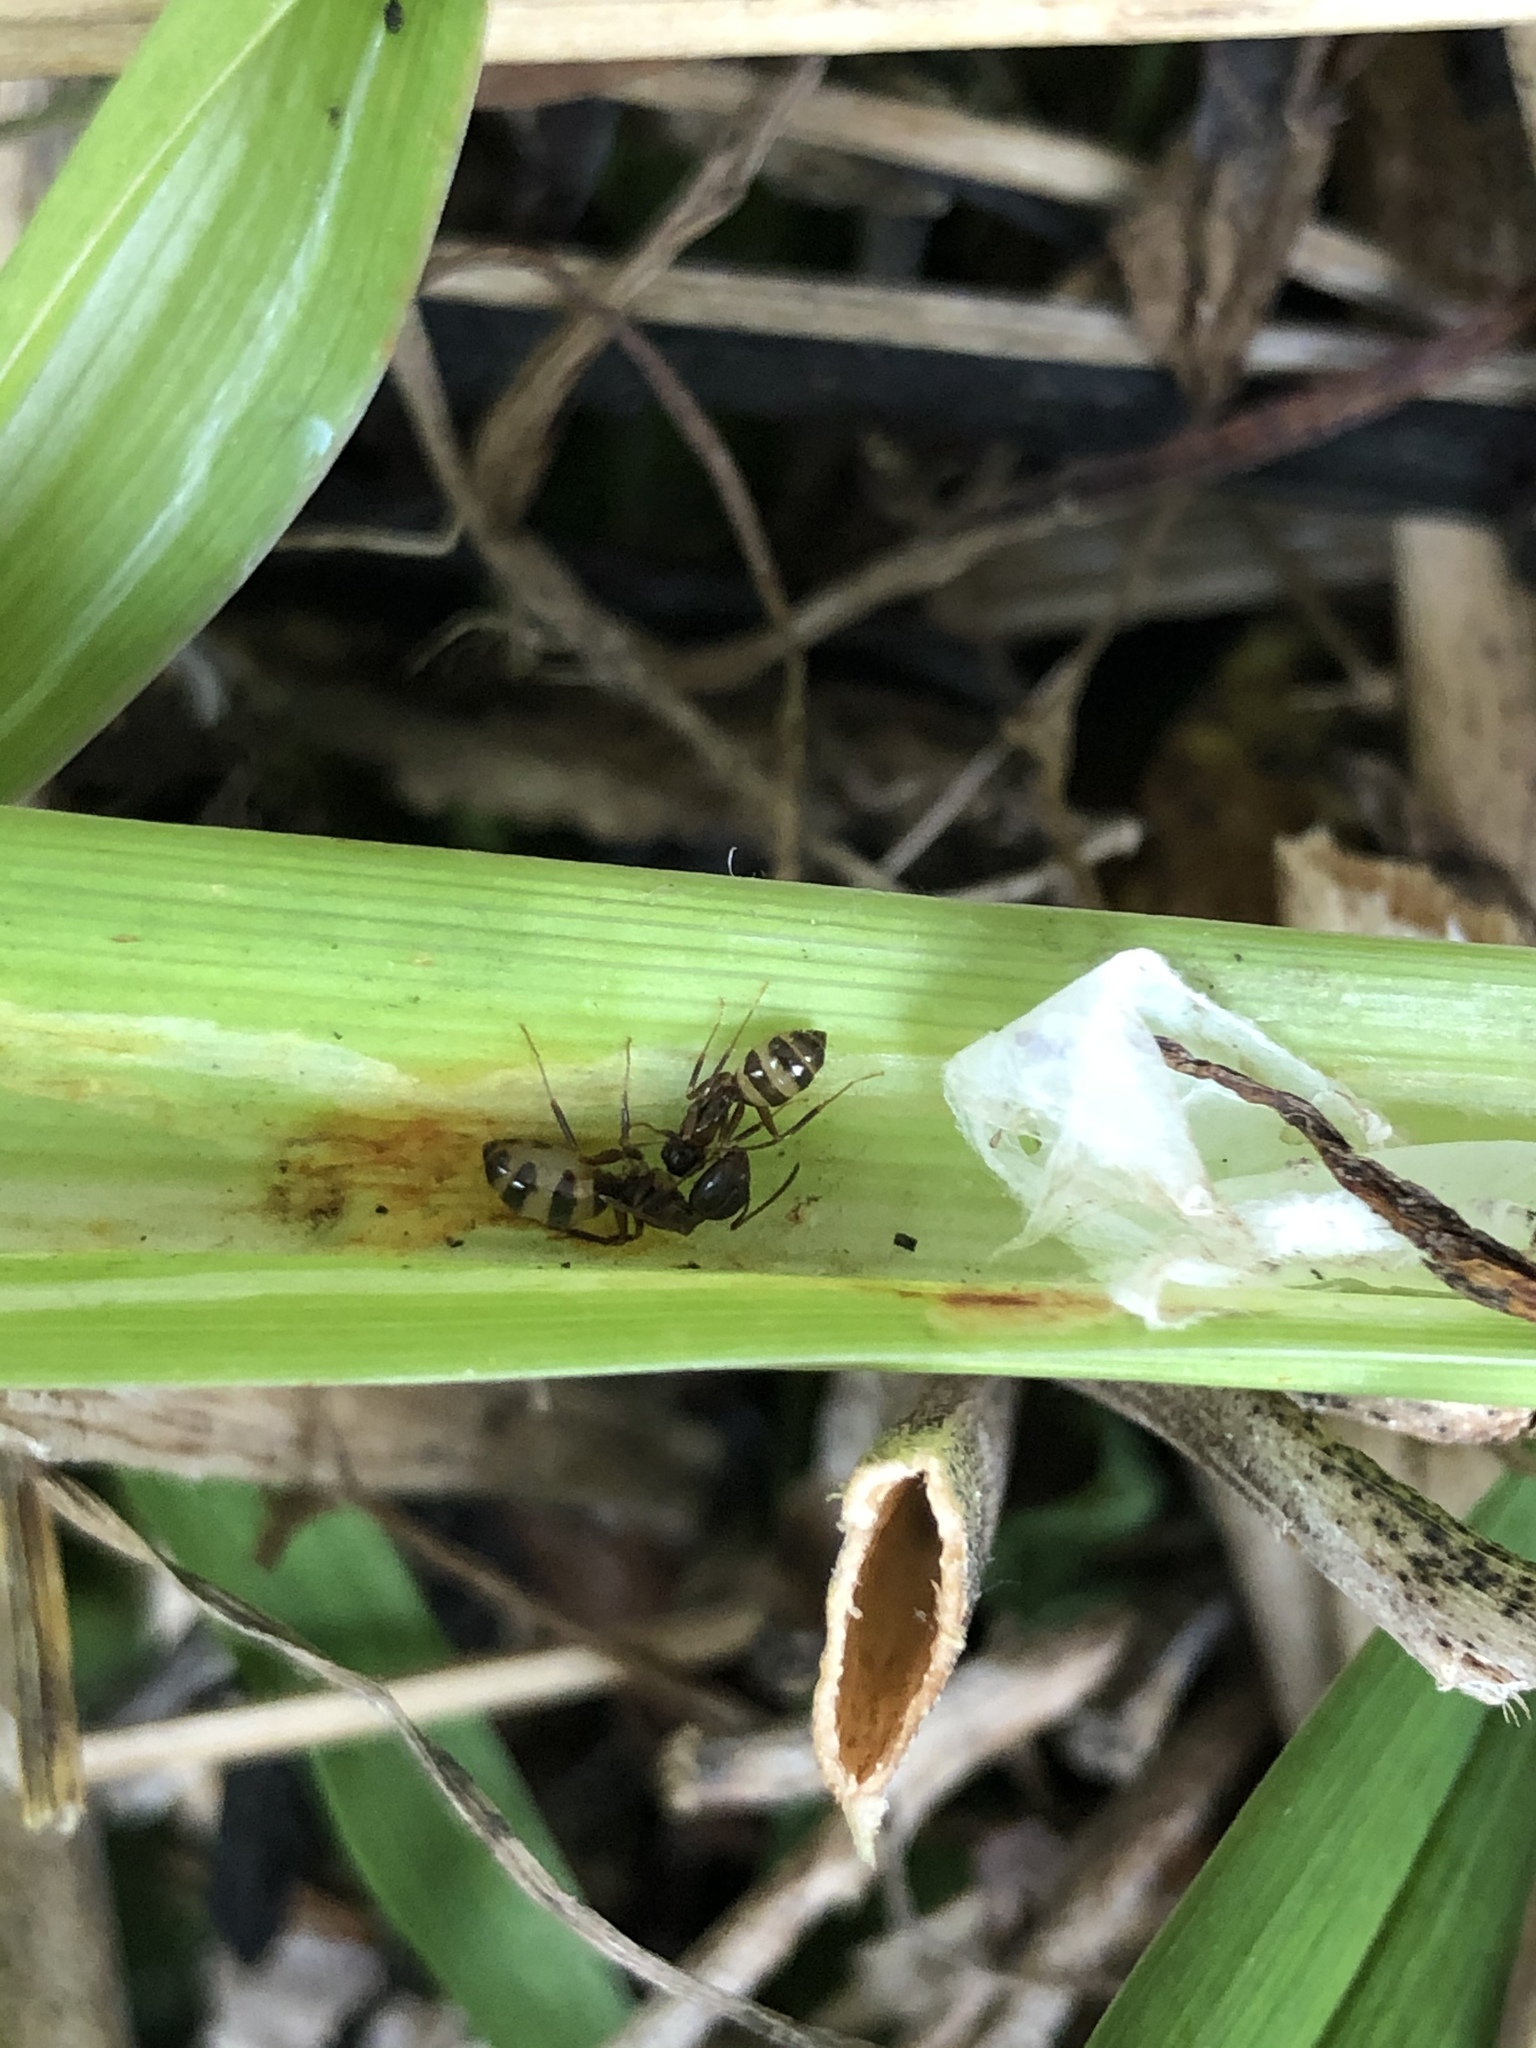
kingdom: Animalia
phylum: Arthropoda
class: Insecta
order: Hymenoptera
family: Formicidae
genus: Camponotus
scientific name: Camponotus subbarbatus
